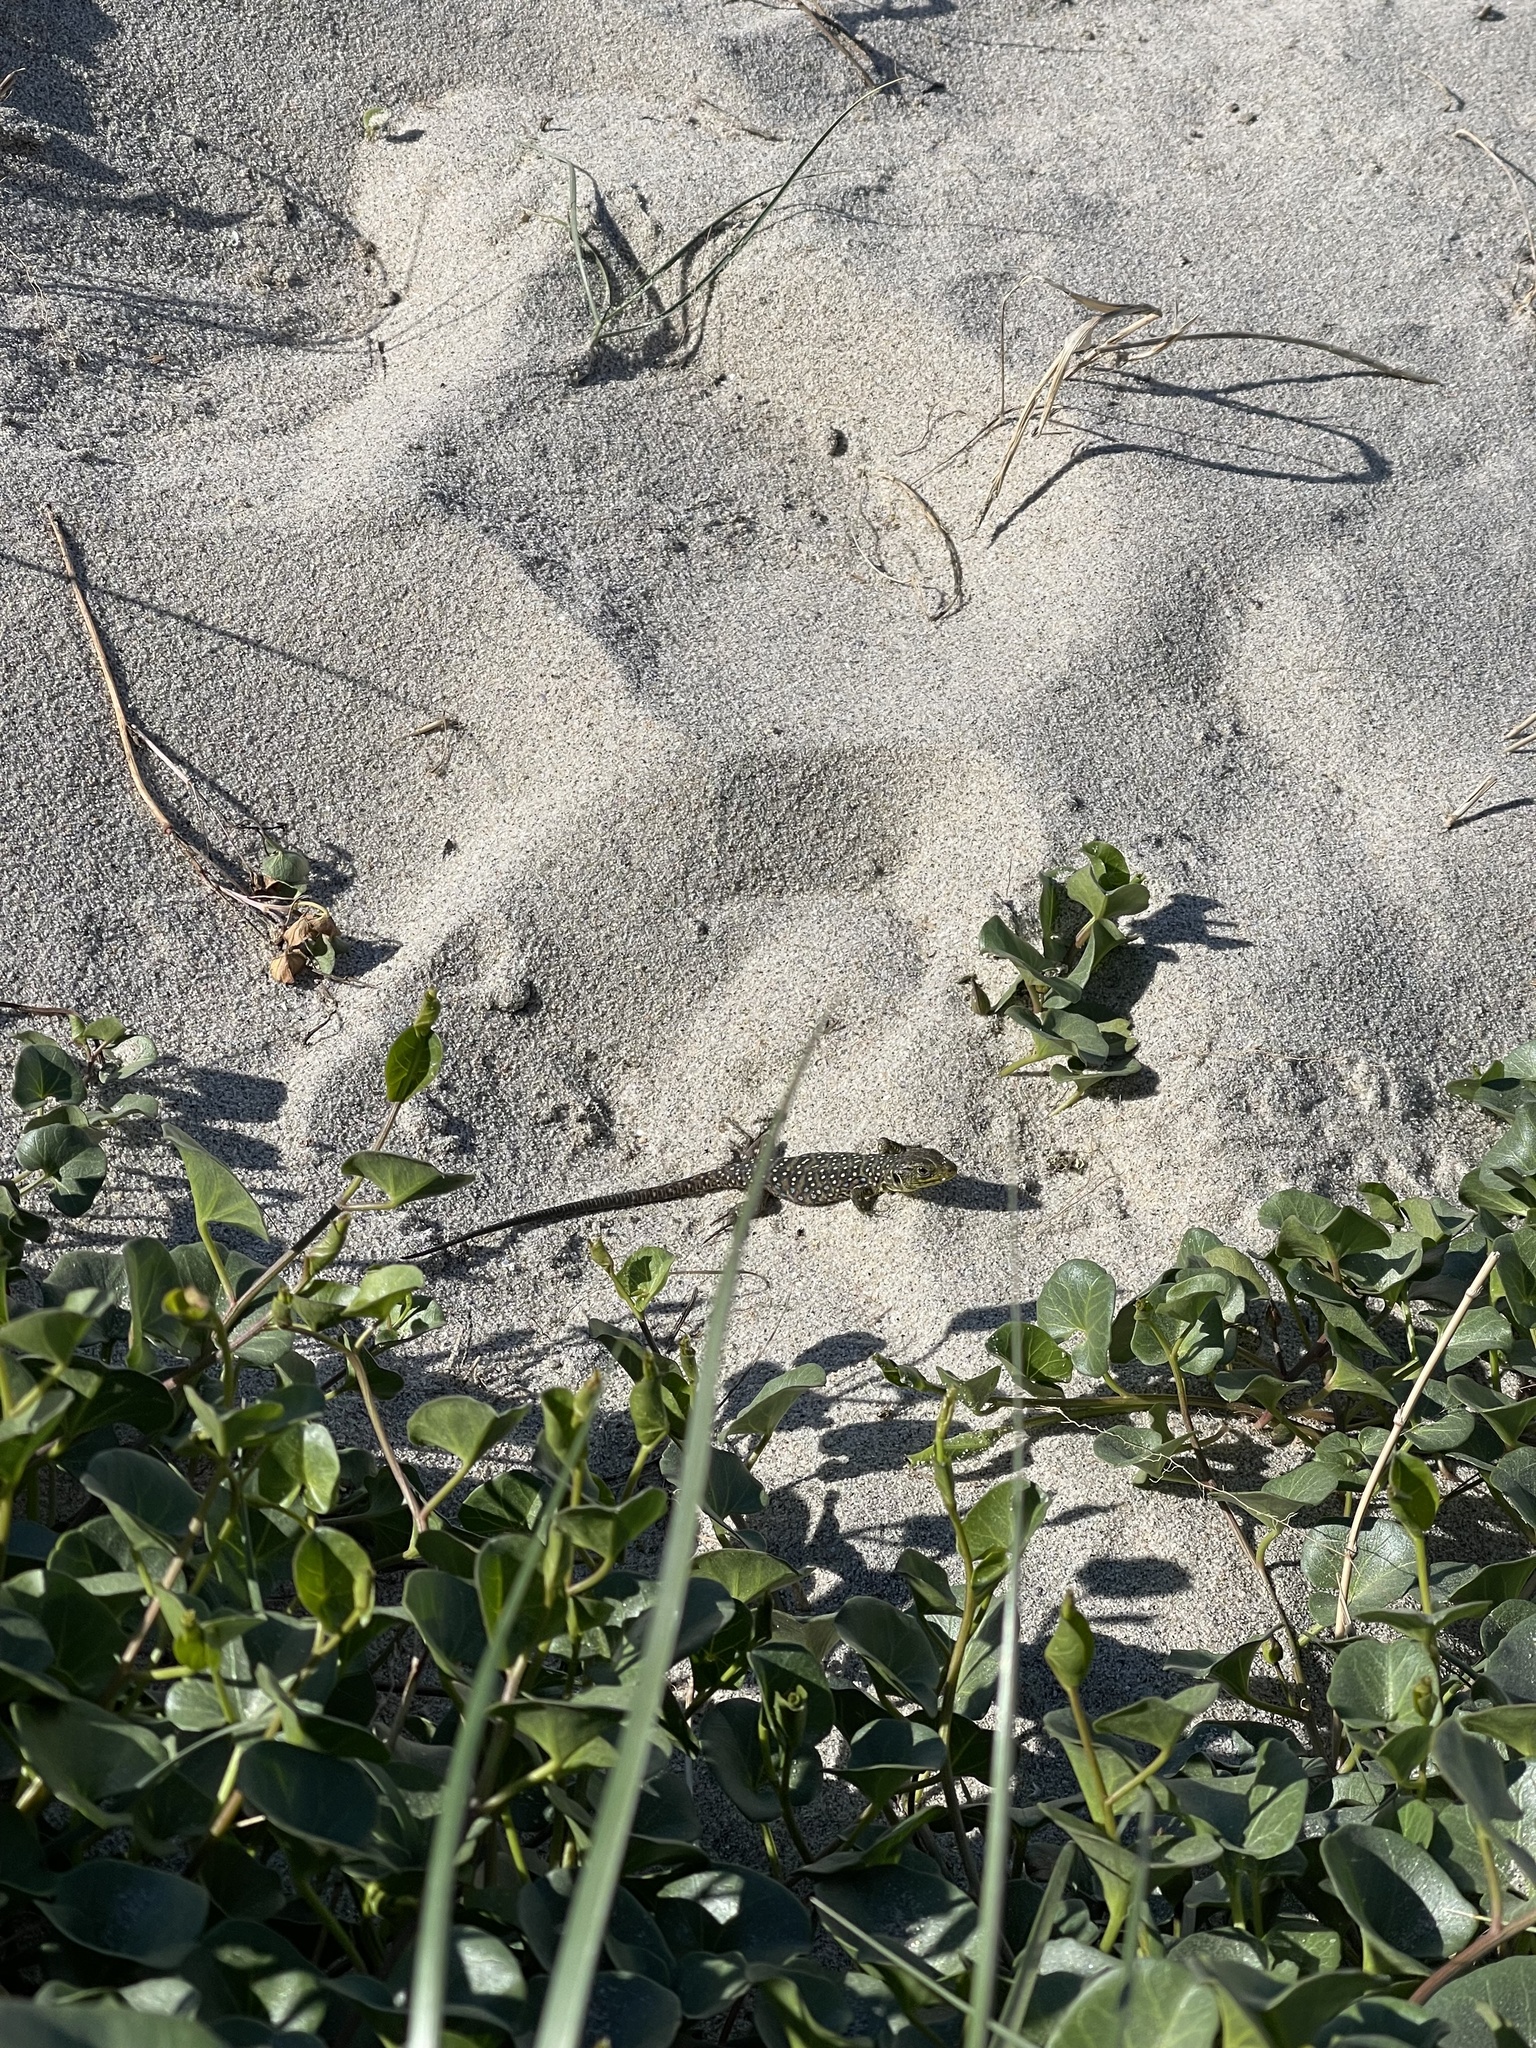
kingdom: Animalia
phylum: Chordata
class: Squamata
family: Lacertidae
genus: Timon
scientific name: Timon lepidus
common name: Ocellated lizard
